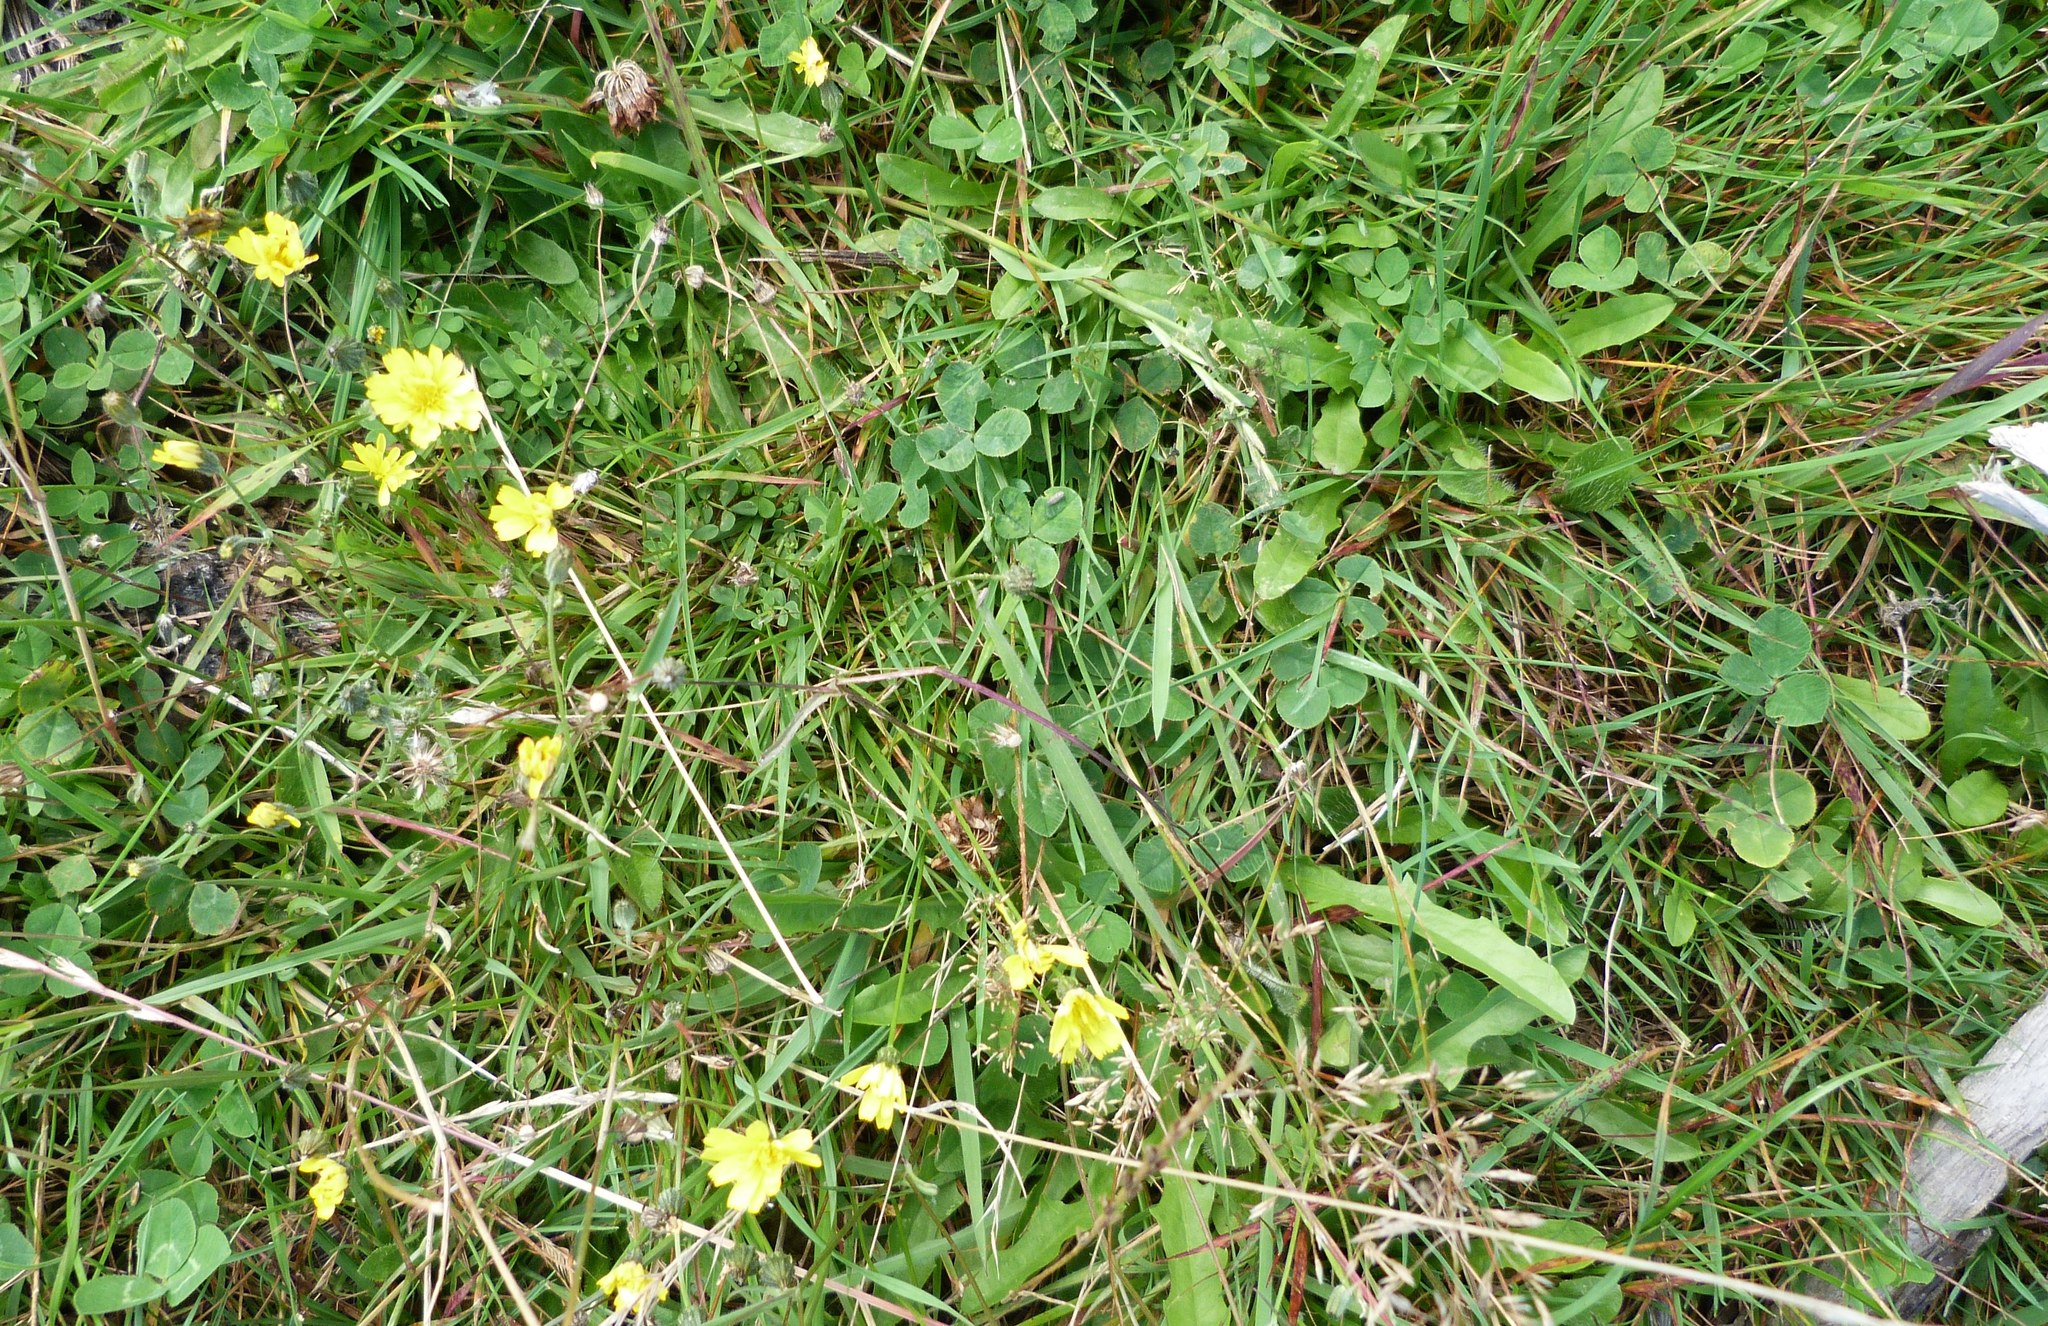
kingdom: Plantae
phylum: Tracheophyta
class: Magnoliopsida
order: Asterales
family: Asteraceae
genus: Crepis
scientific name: Crepis capillaris
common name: Smooth hawksbeard
